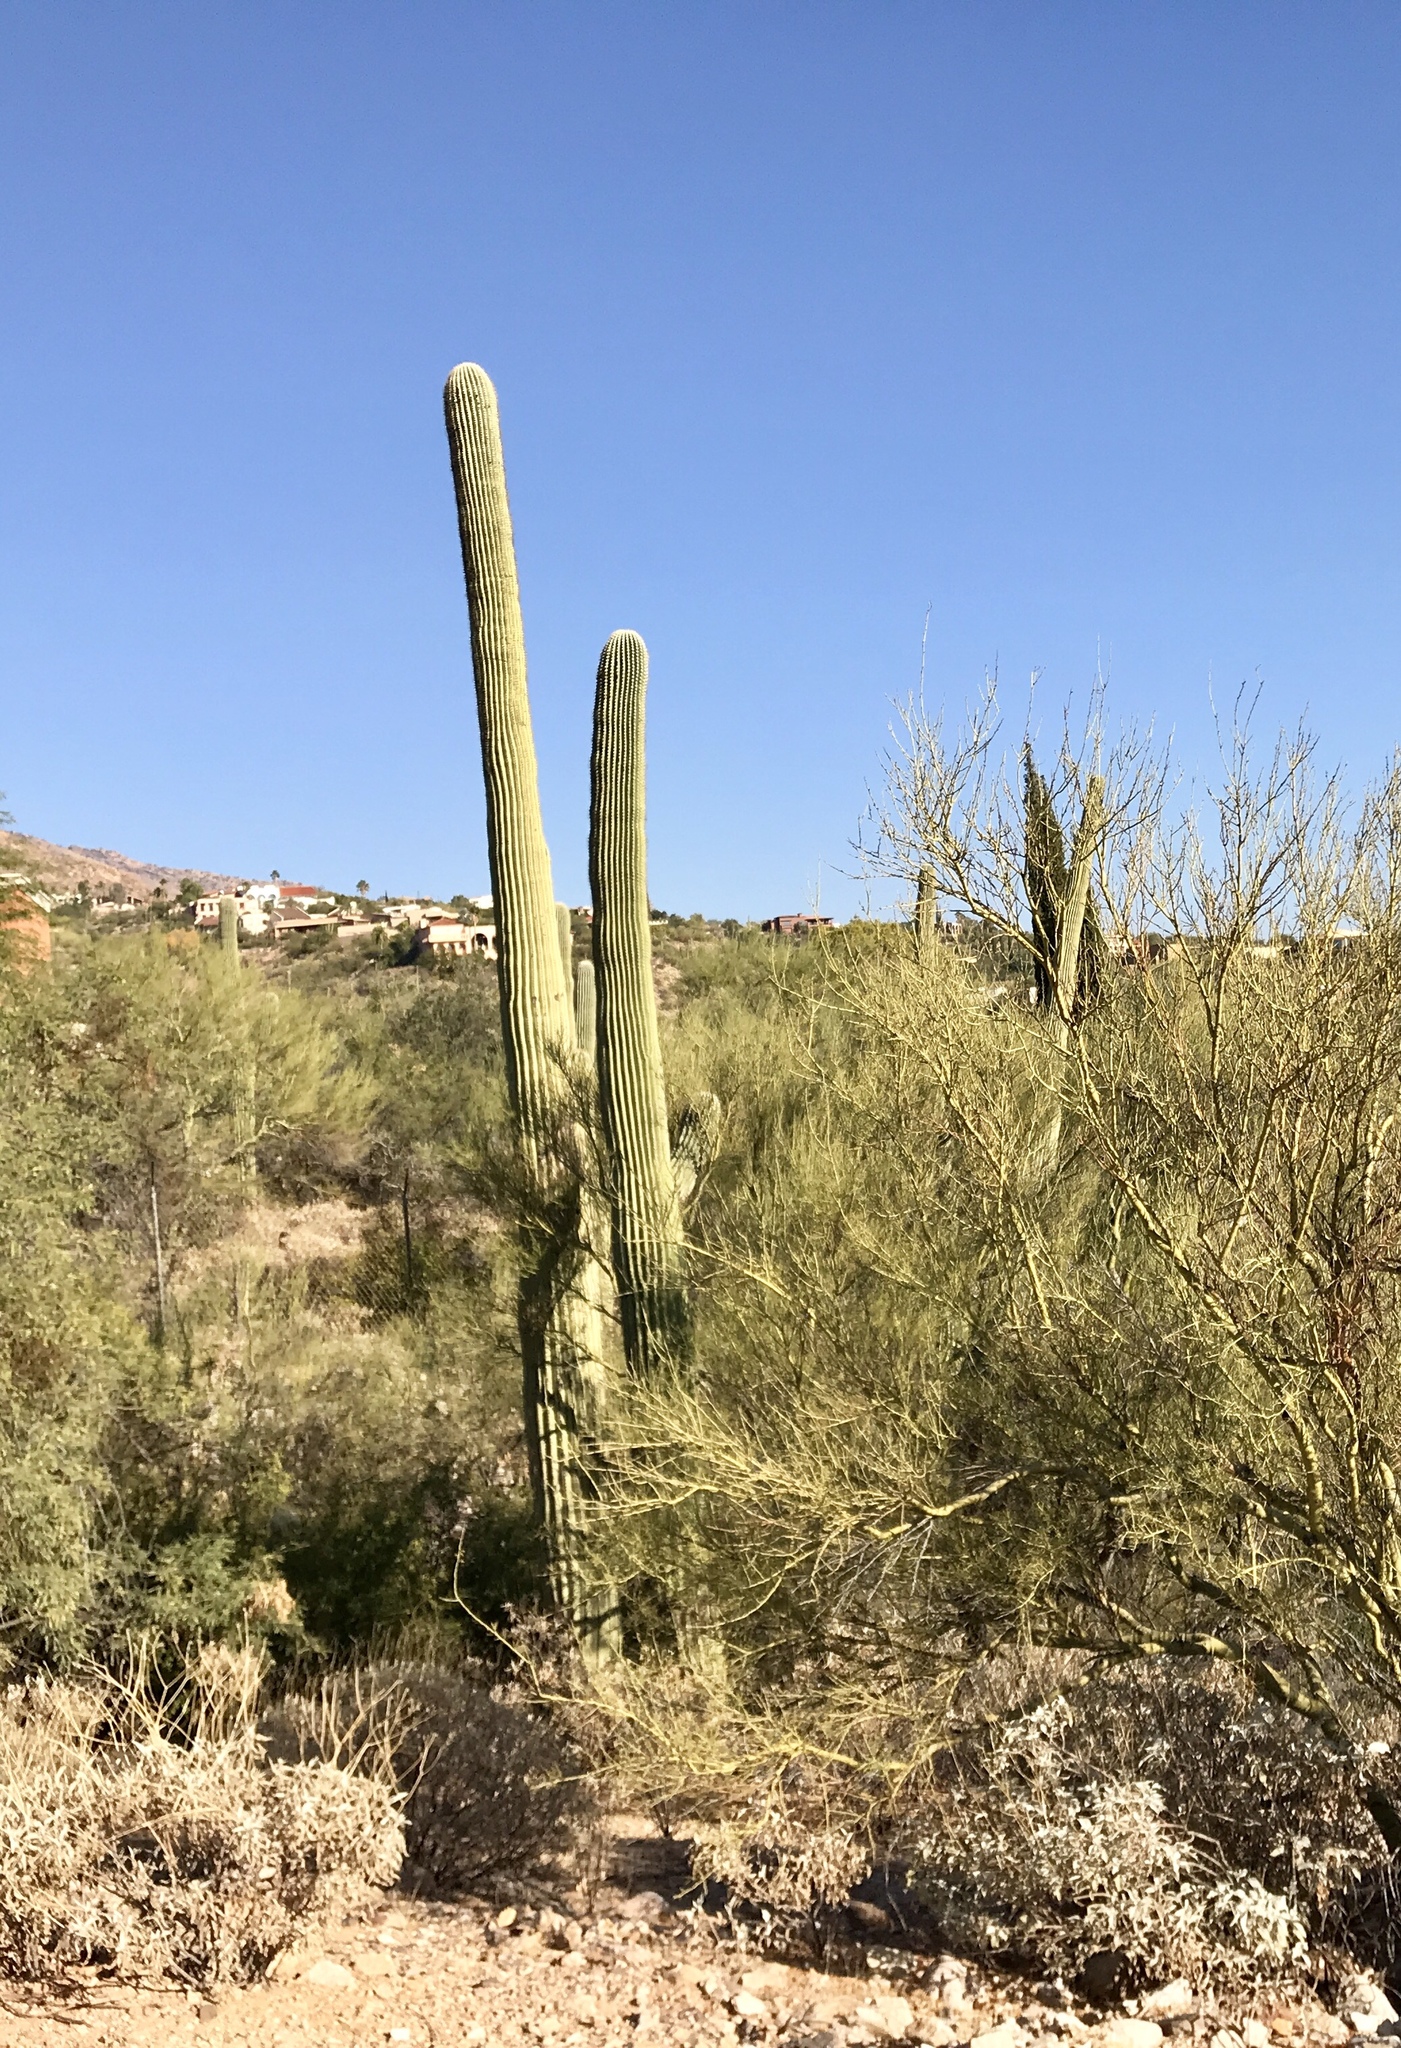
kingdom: Plantae
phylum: Tracheophyta
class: Magnoliopsida
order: Caryophyllales
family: Cactaceae
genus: Carnegiea
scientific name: Carnegiea gigantea
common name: Saguaro
